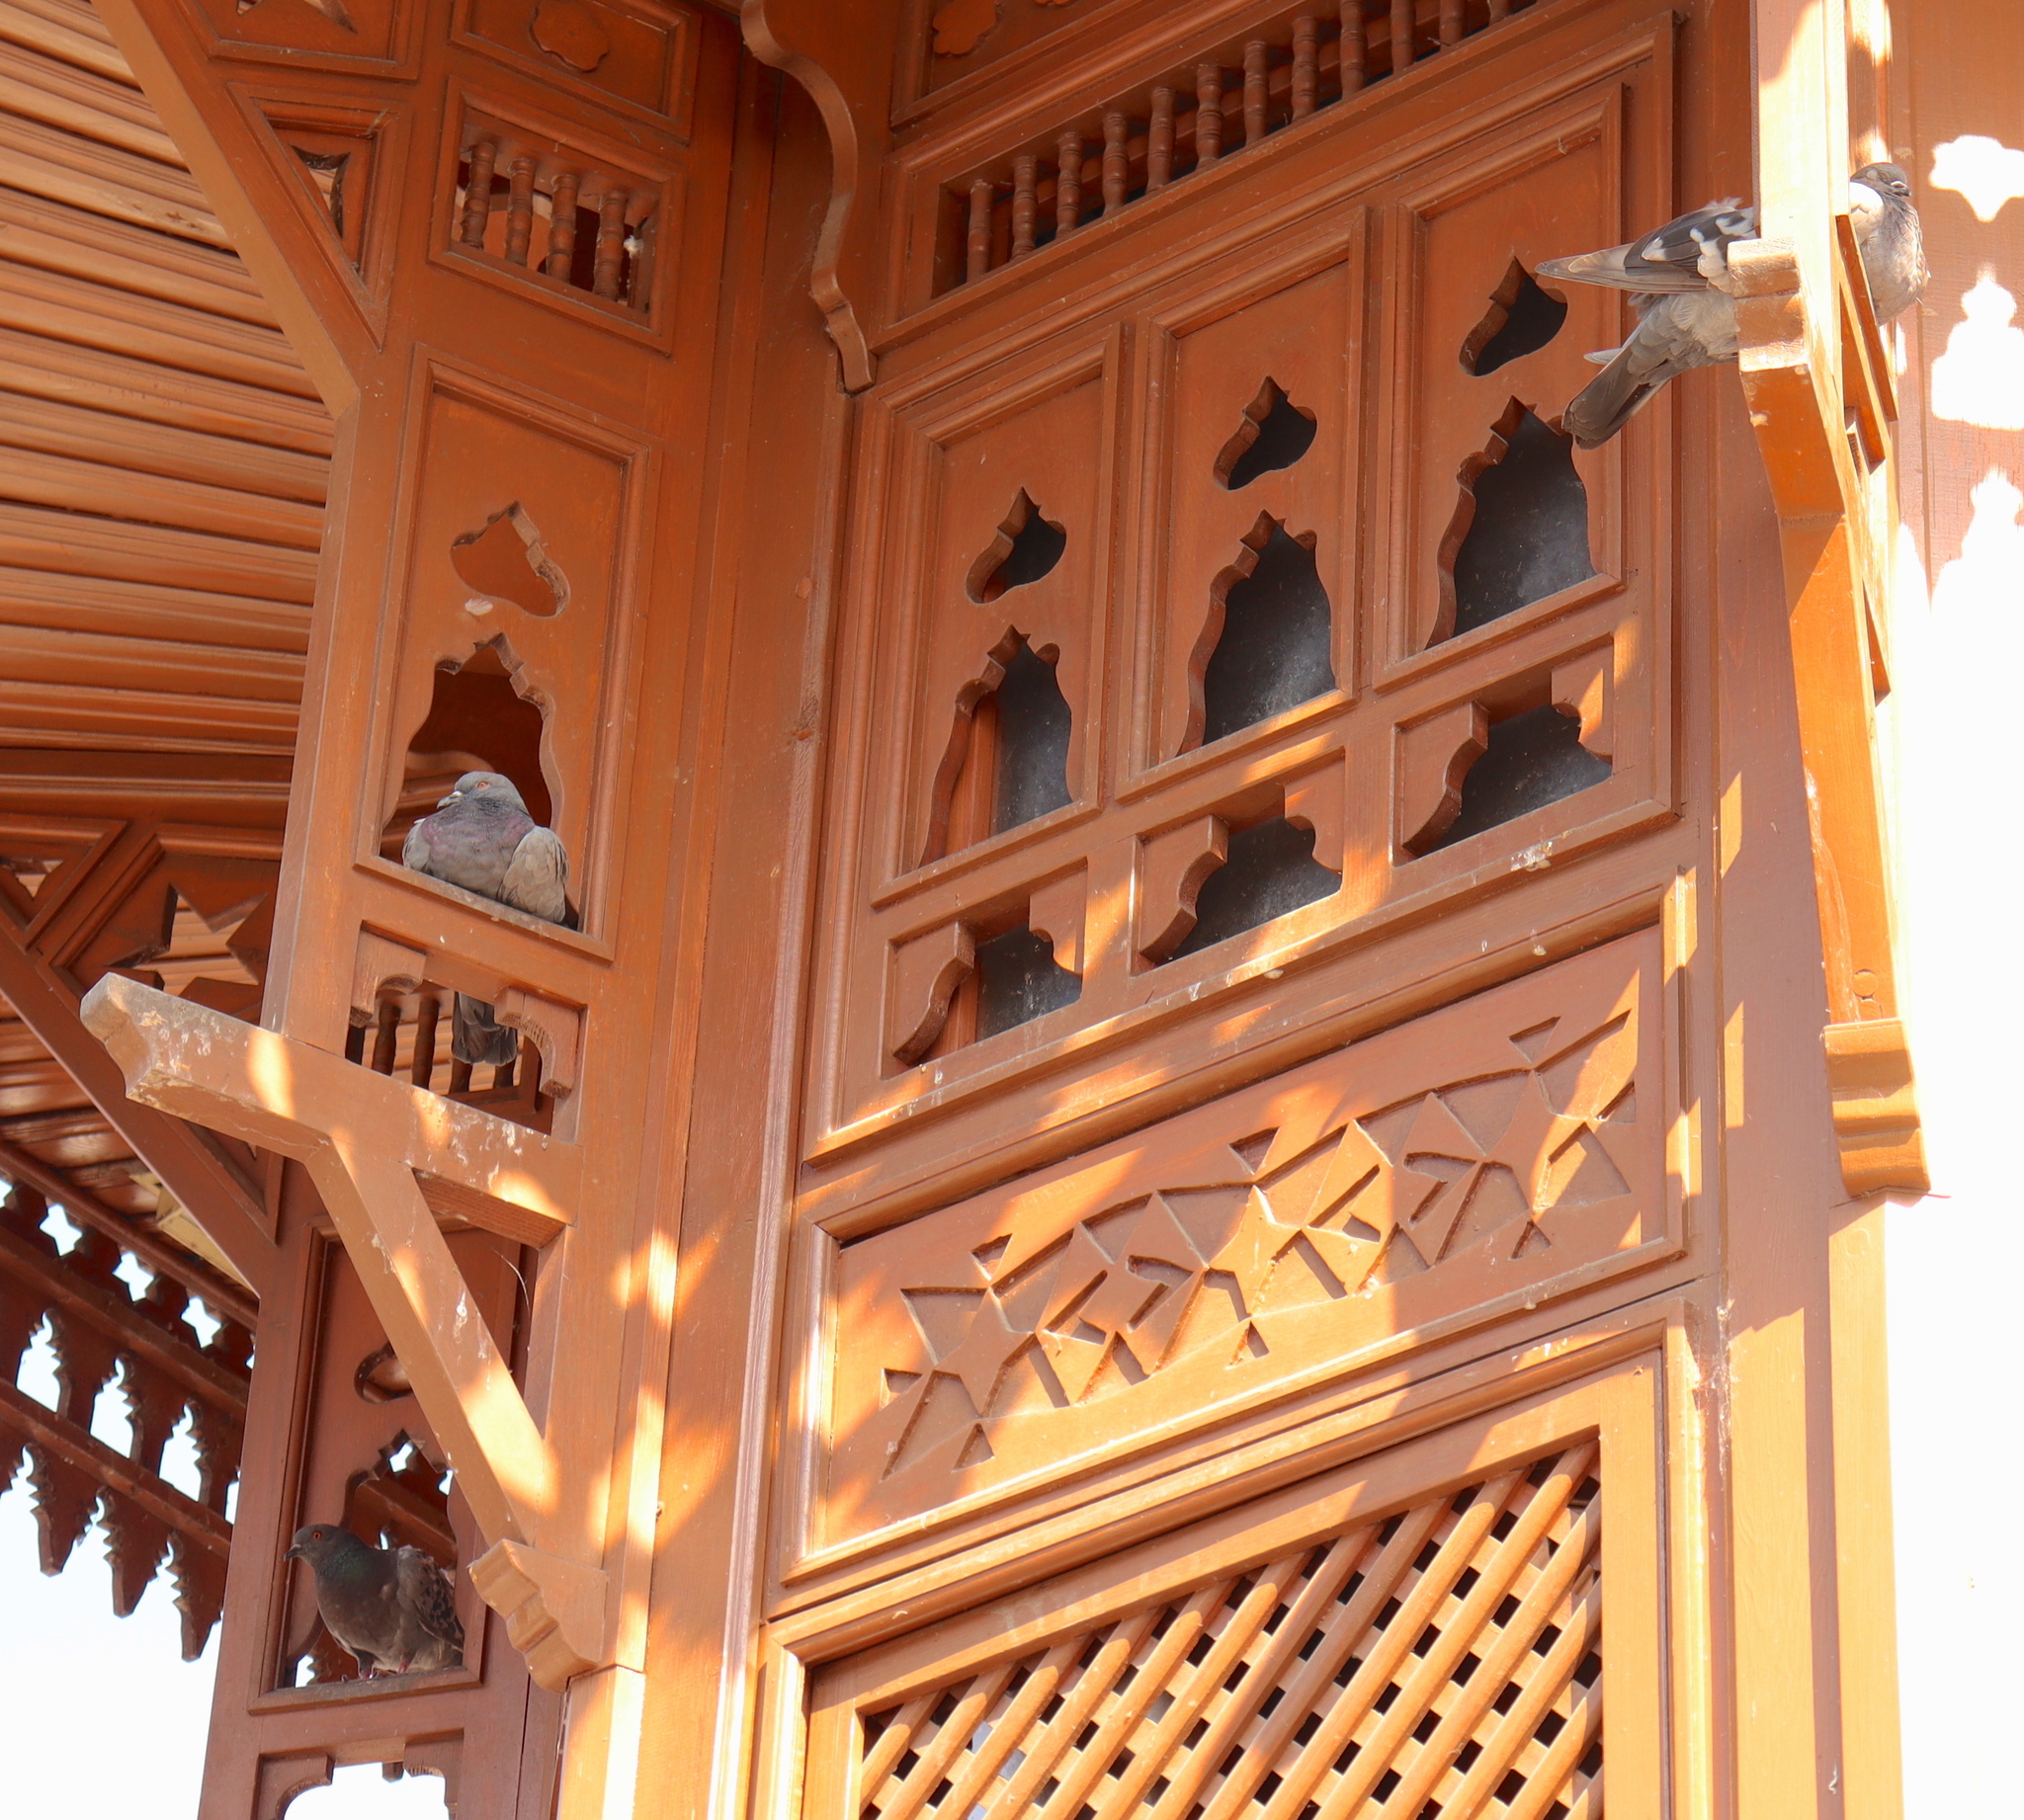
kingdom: Animalia
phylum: Chordata
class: Aves
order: Columbiformes
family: Columbidae
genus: Columba
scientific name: Columba livia
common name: Rock pigeon
